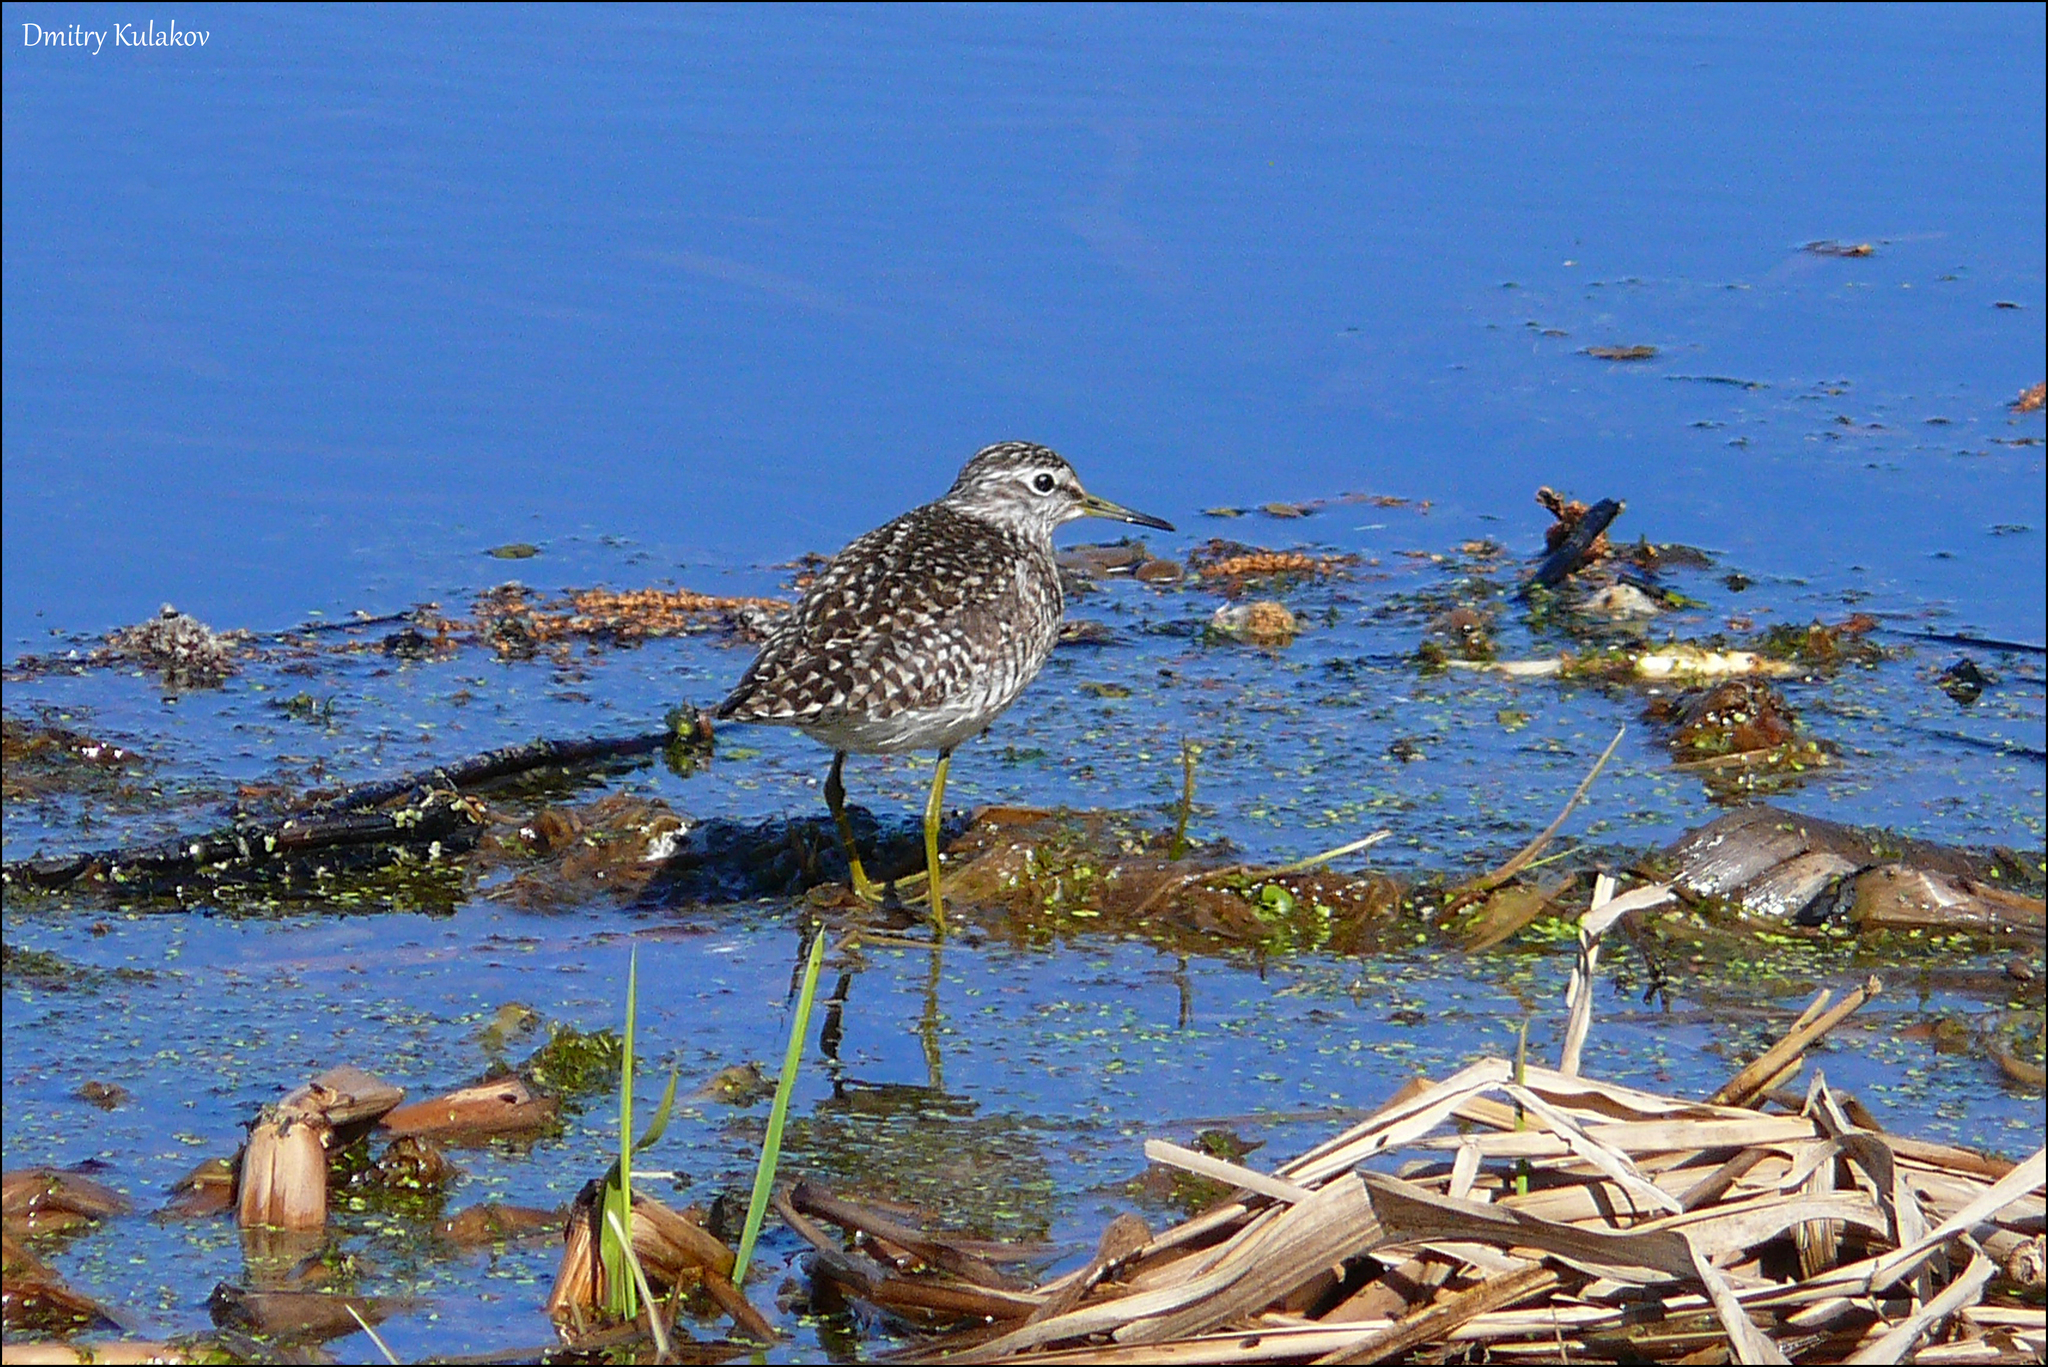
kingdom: Animalia
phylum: Chordata
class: Aves
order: Charadriiformes
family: Scolopacidae
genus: Tringa
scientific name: Tringa glareola
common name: Wood sandpiper
